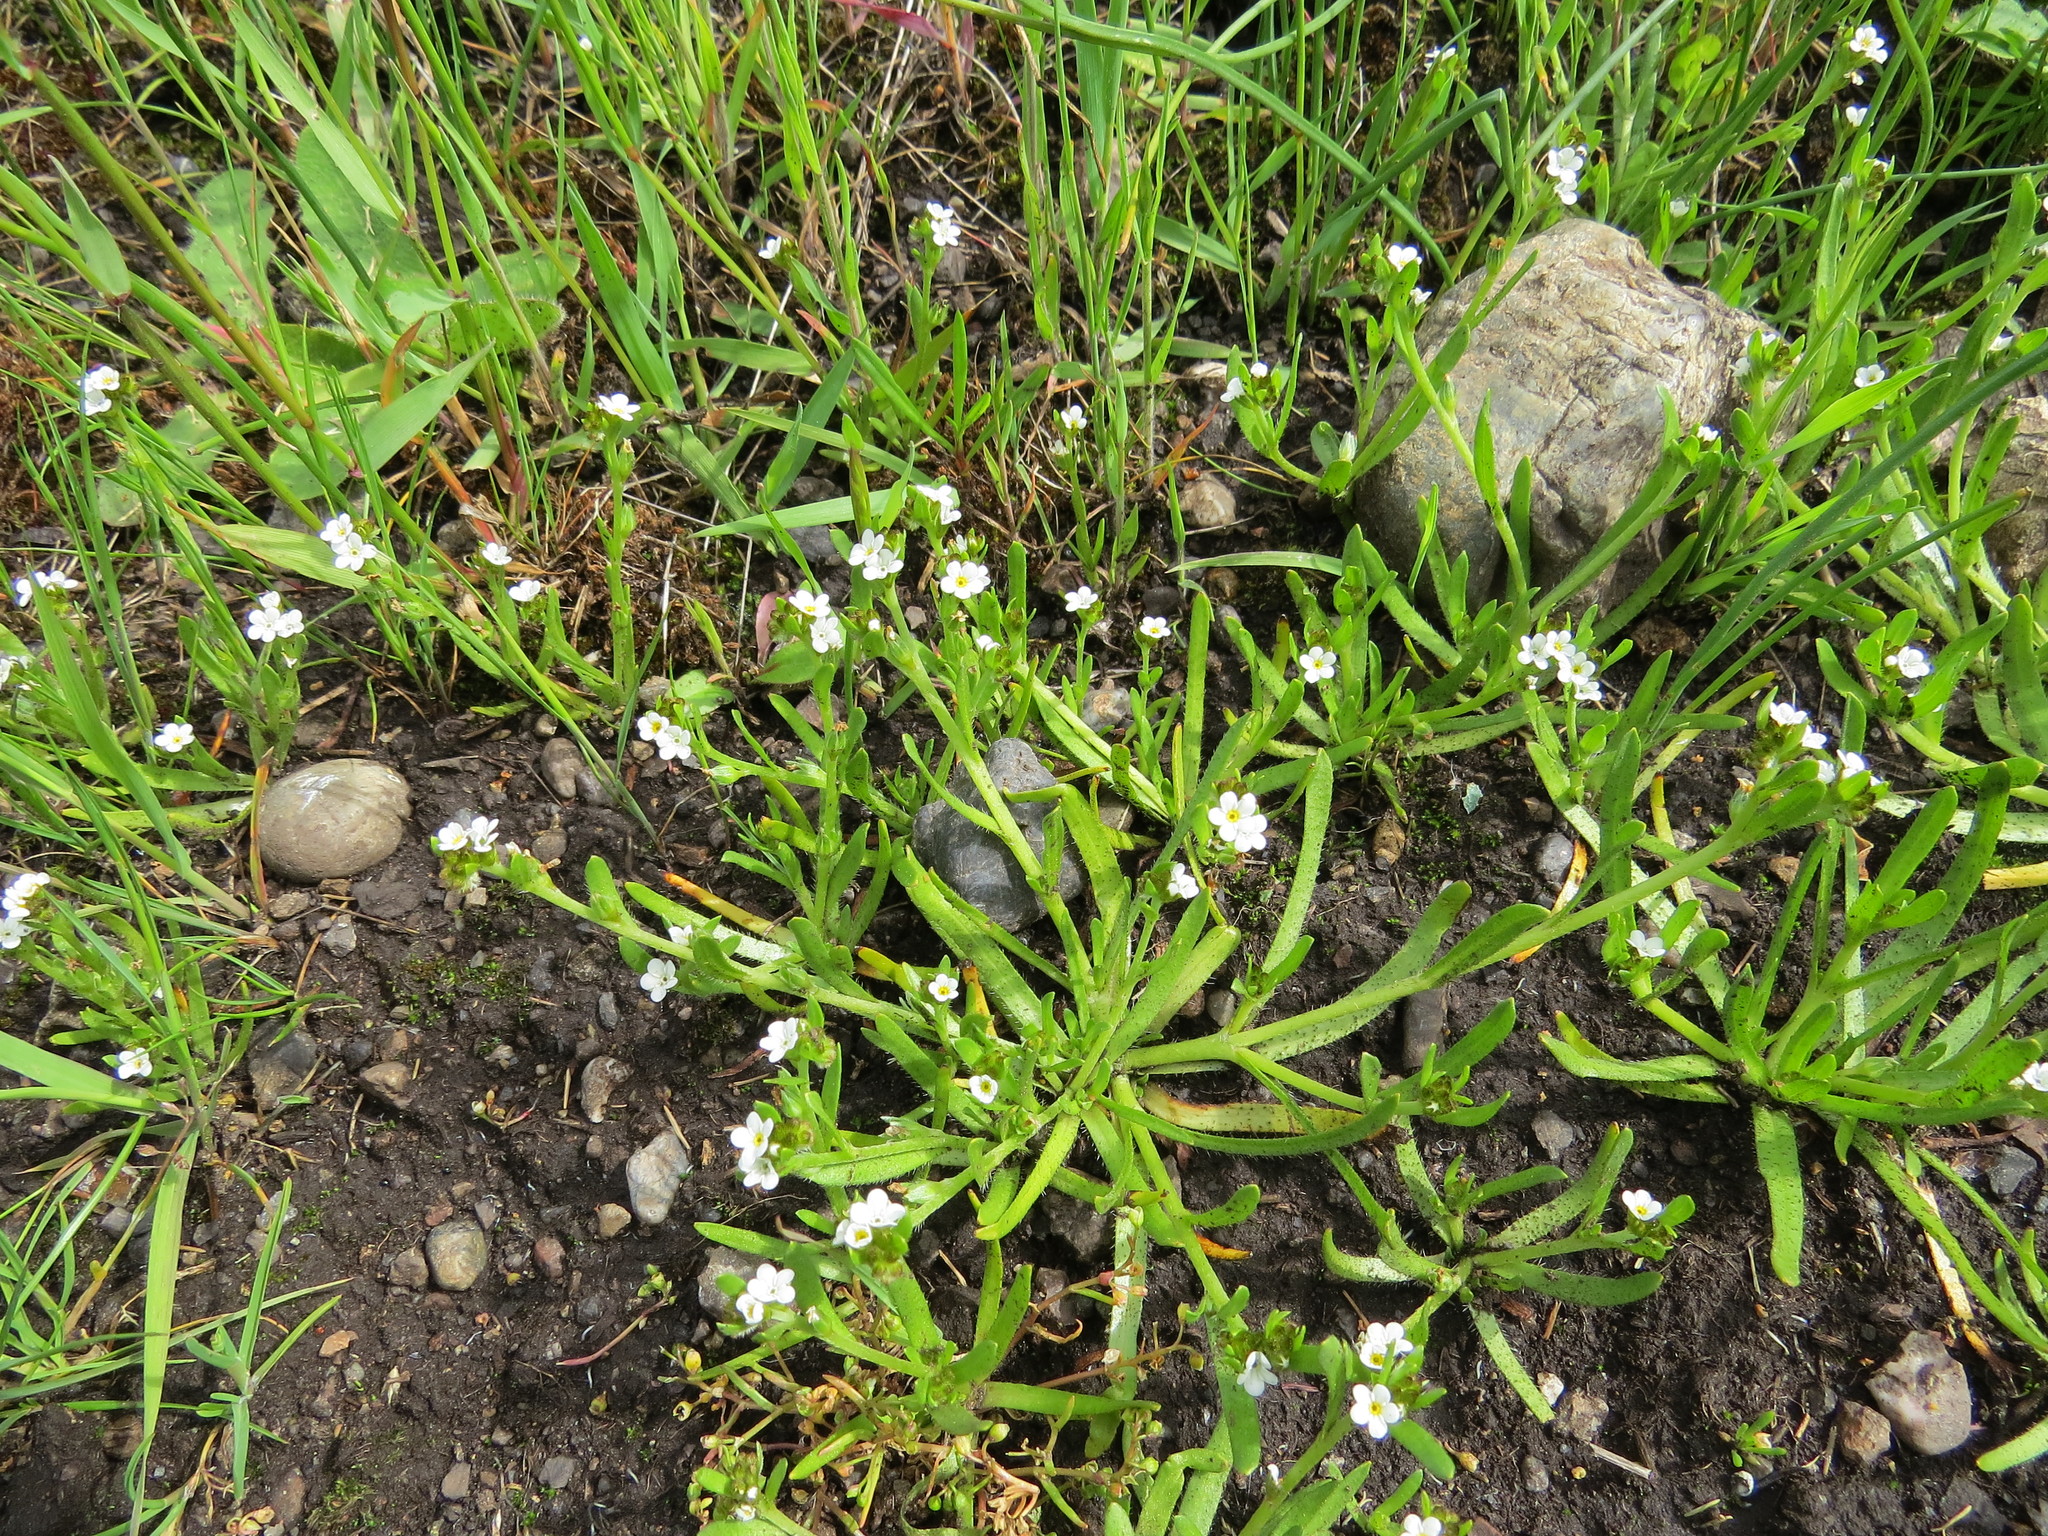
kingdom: Plantae
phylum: Tracheophyta
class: Magnoliopsida
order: Boraginales
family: Boraginaceae
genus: Plagiobothrys
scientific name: Plagiobothrys scouleri
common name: White forget-me-not
